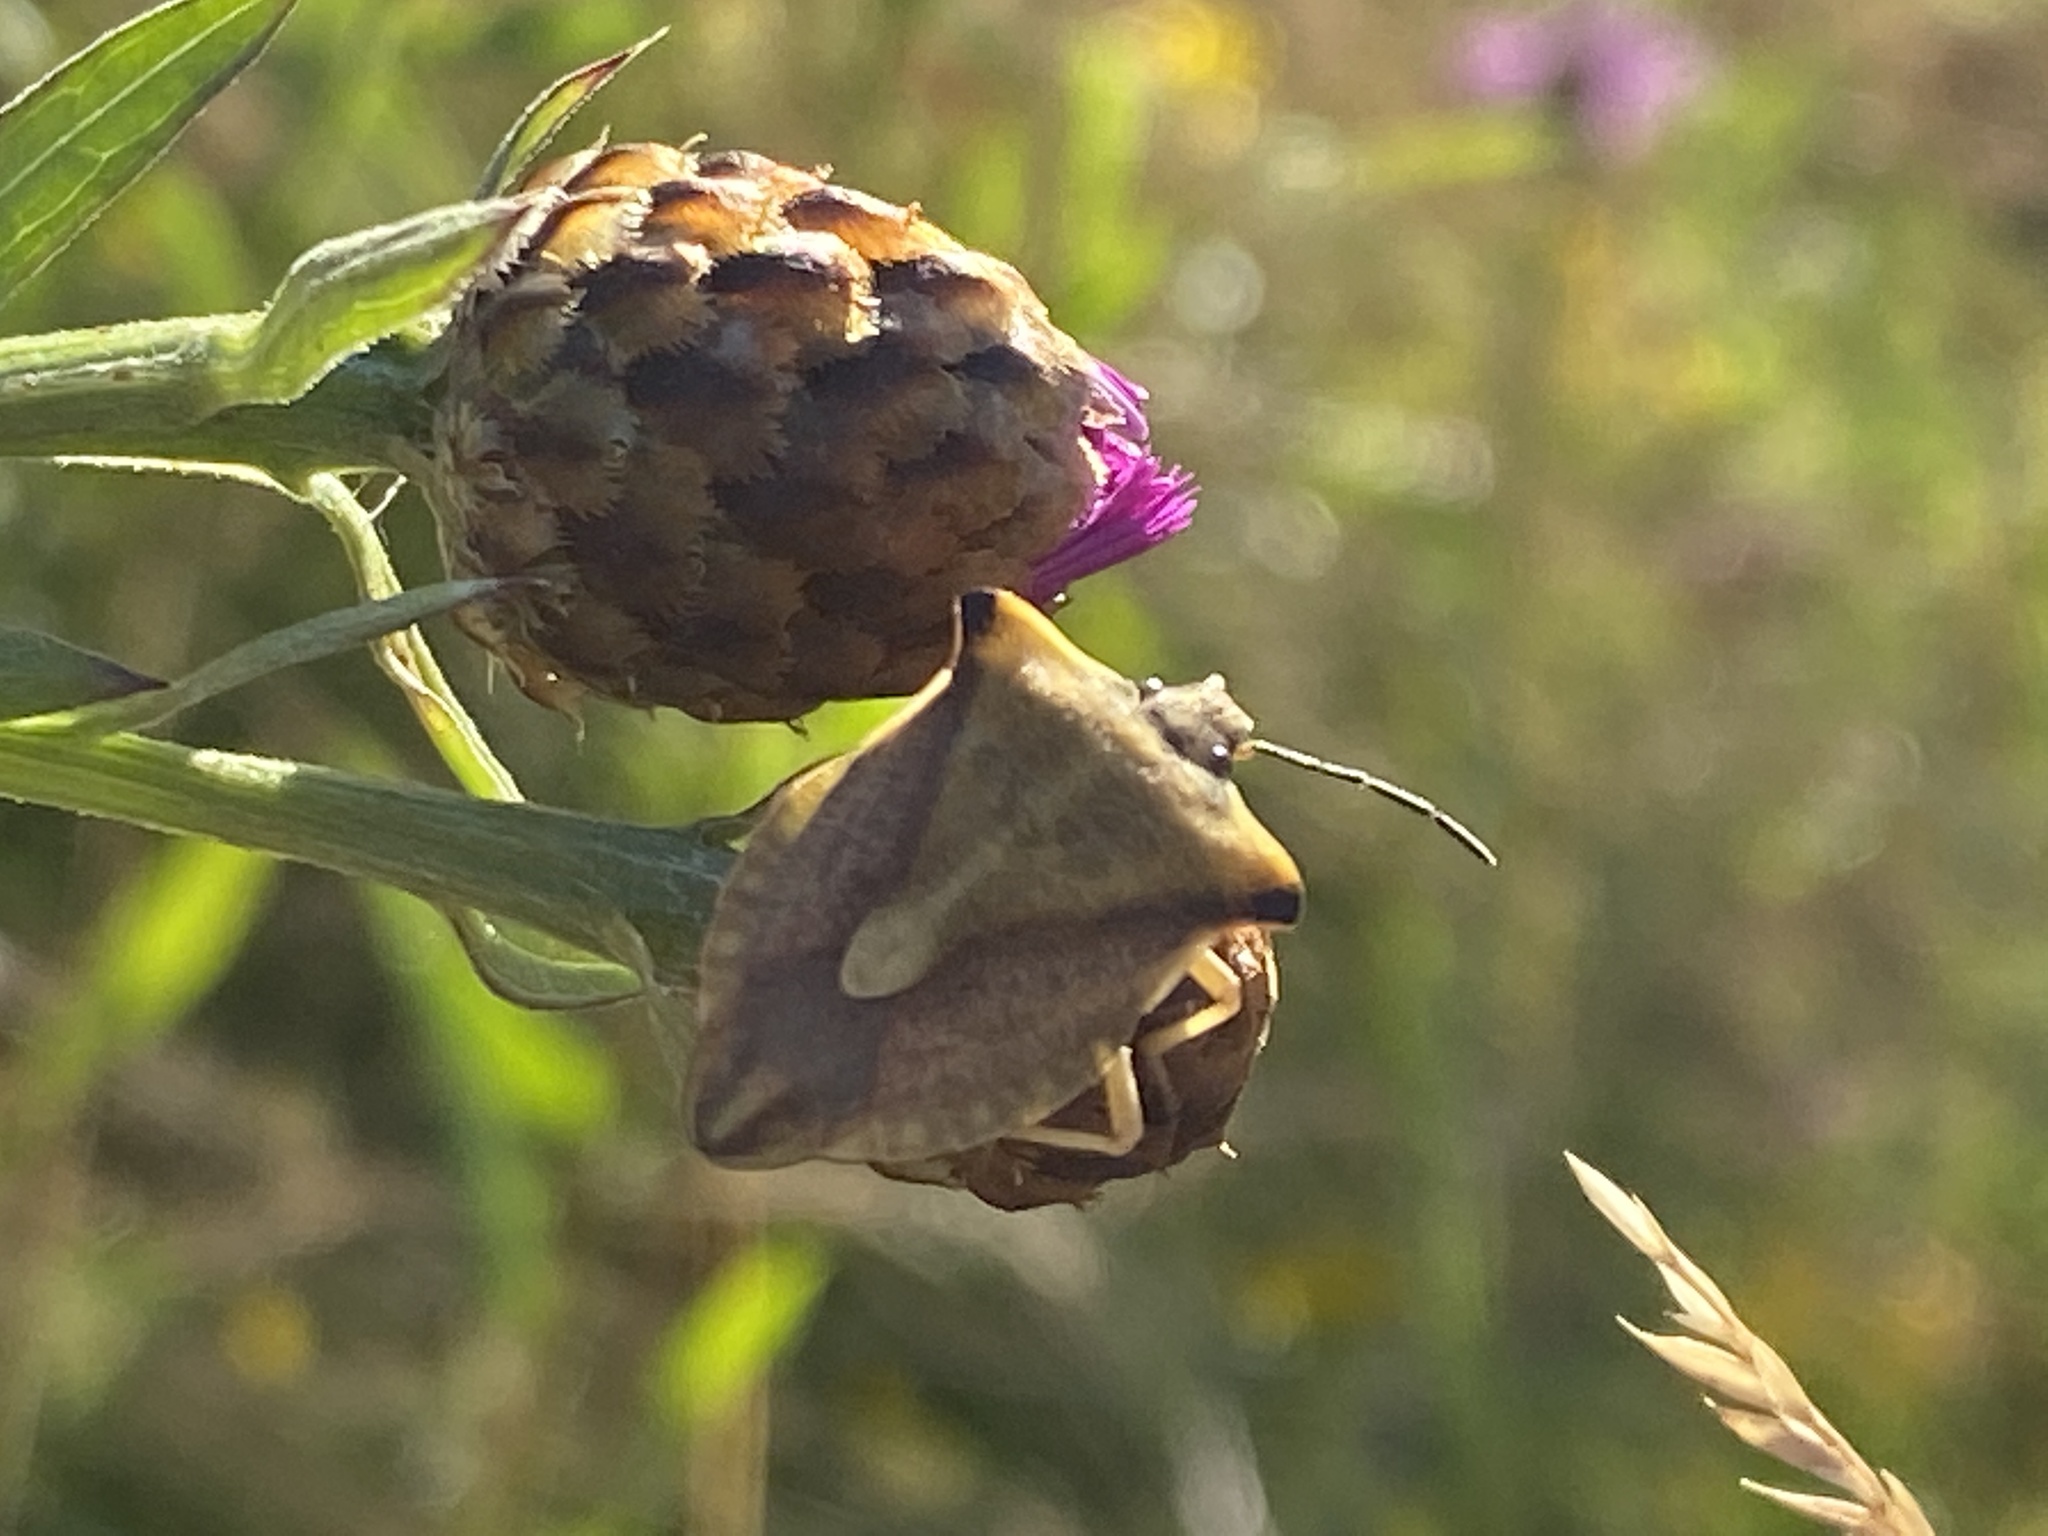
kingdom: Animalia
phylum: Arthropoda
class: Insecta
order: Hemiptera
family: Pentatomidae
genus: Carpocoris
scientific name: Carpocoris fuscispinus
